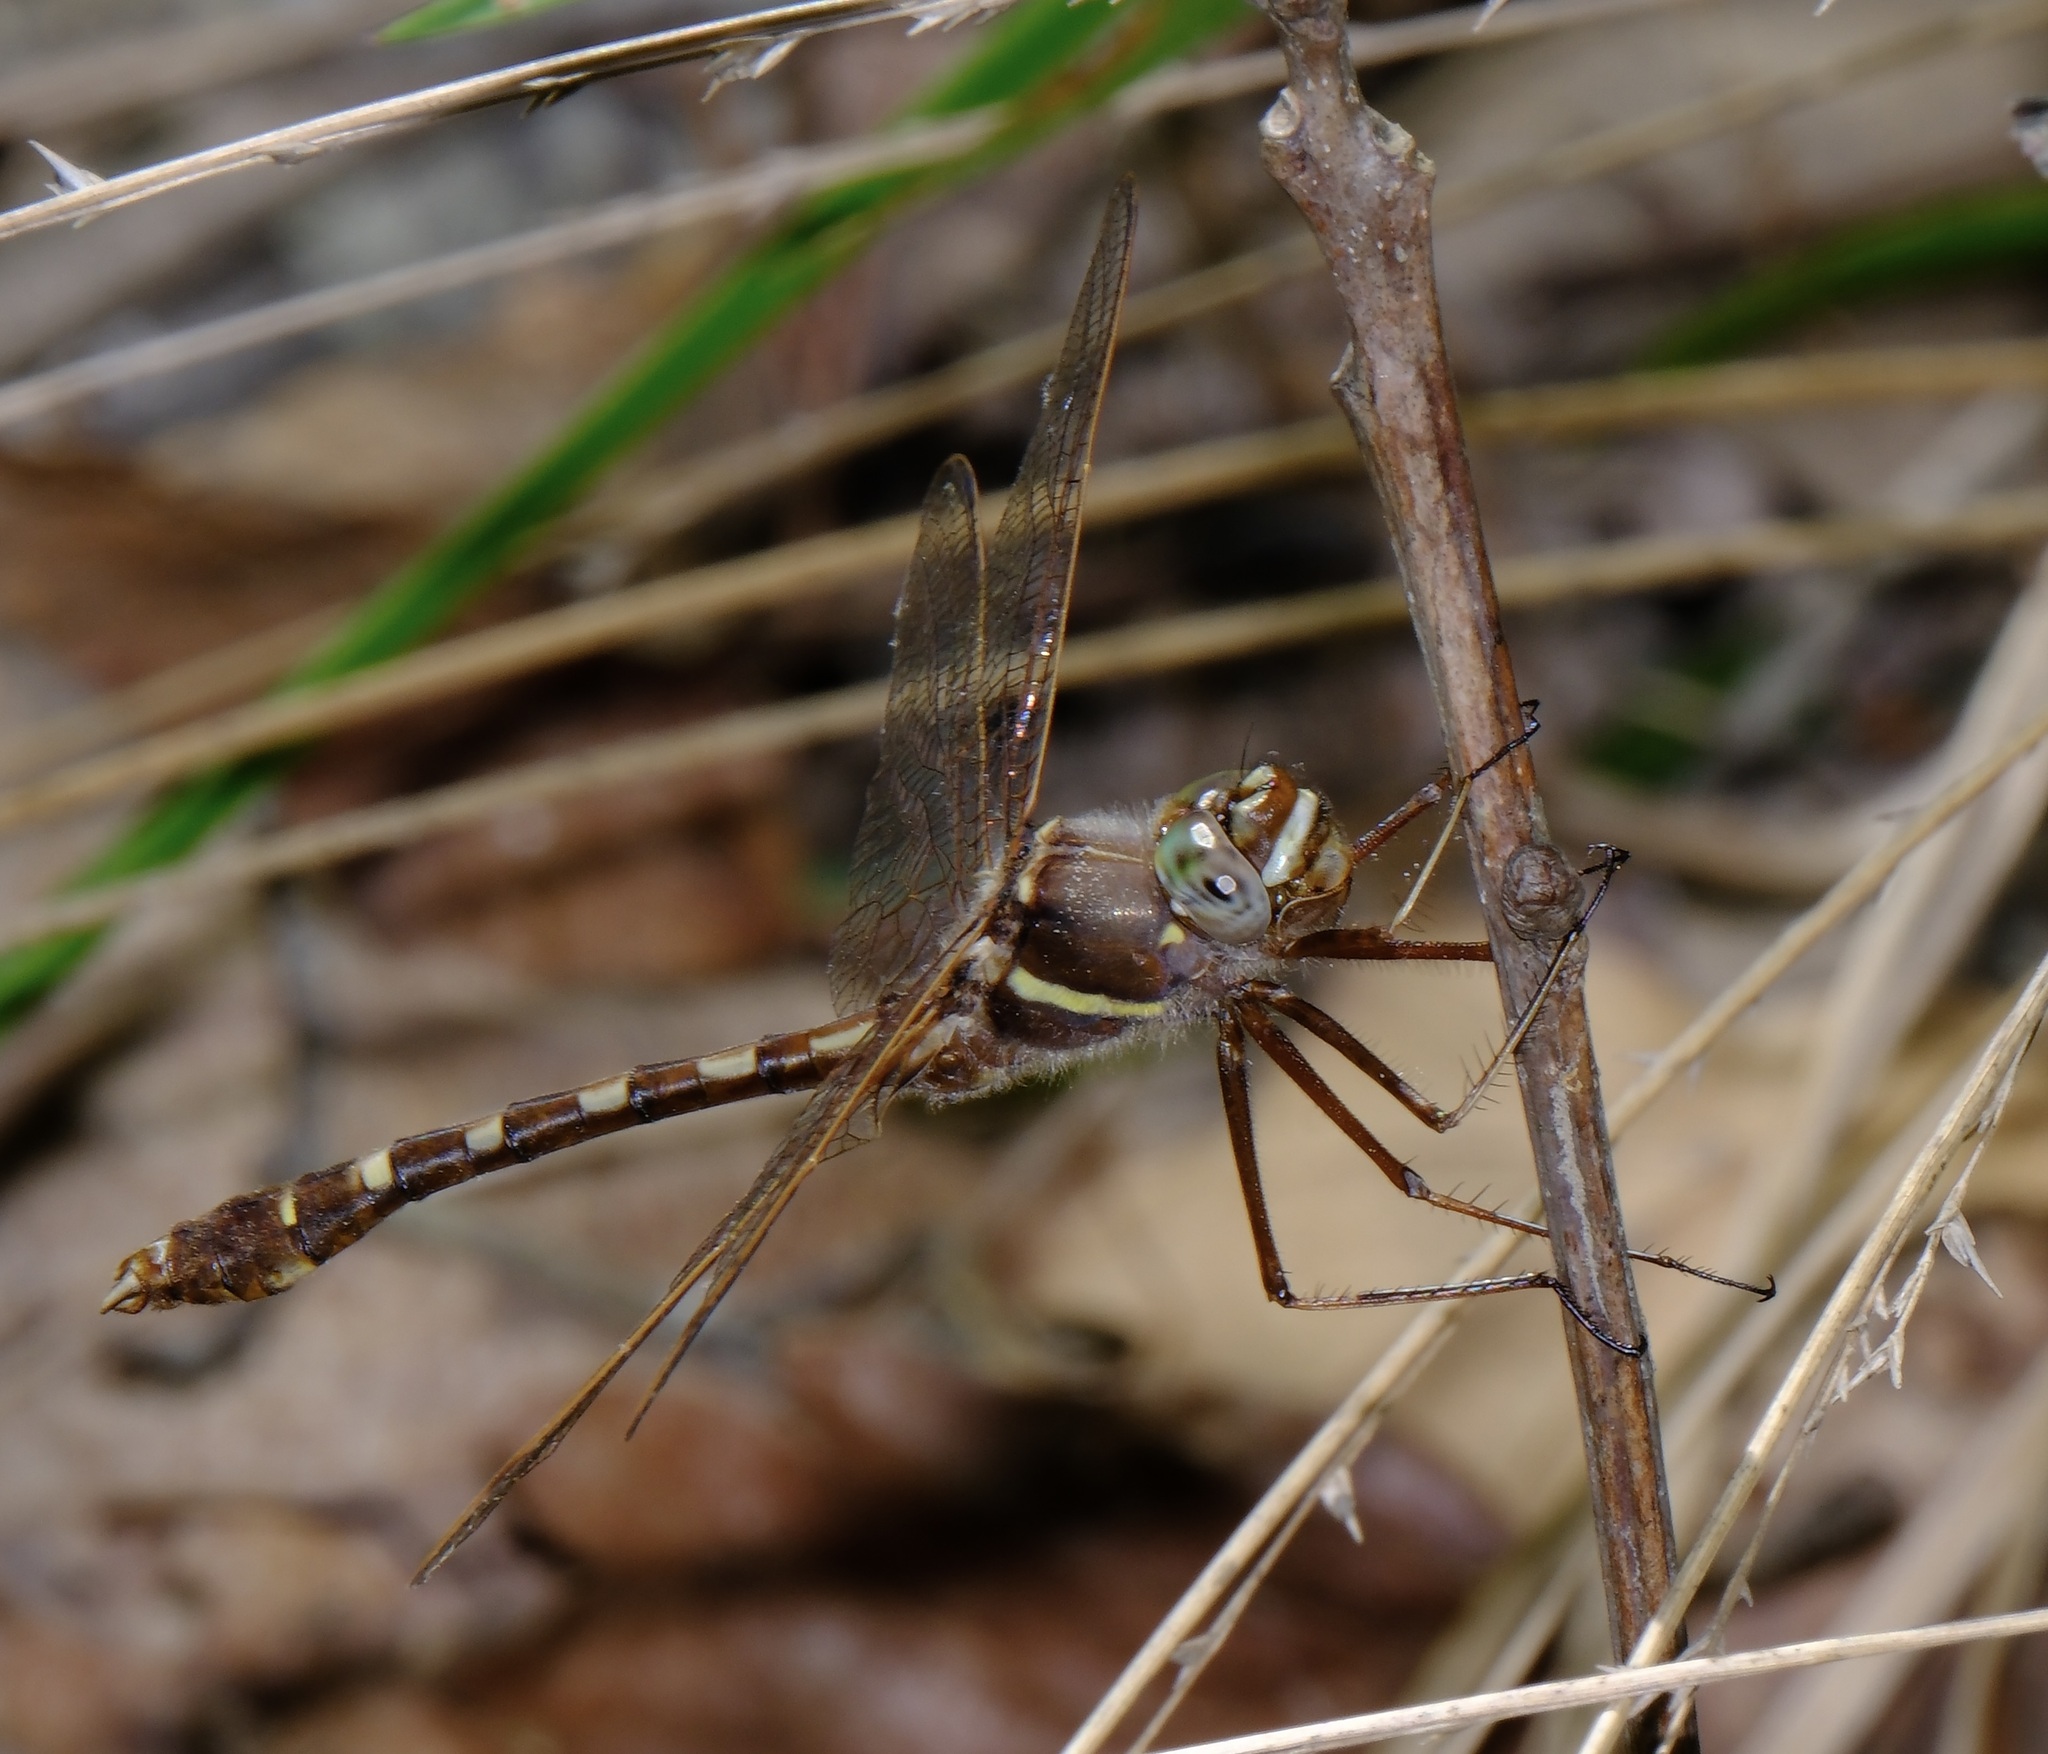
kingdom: Animalia
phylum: Arthropoda
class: Insecta
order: Odonata
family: Macromiidae
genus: Didymops
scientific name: Didymops transversa
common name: Stream cruiser
